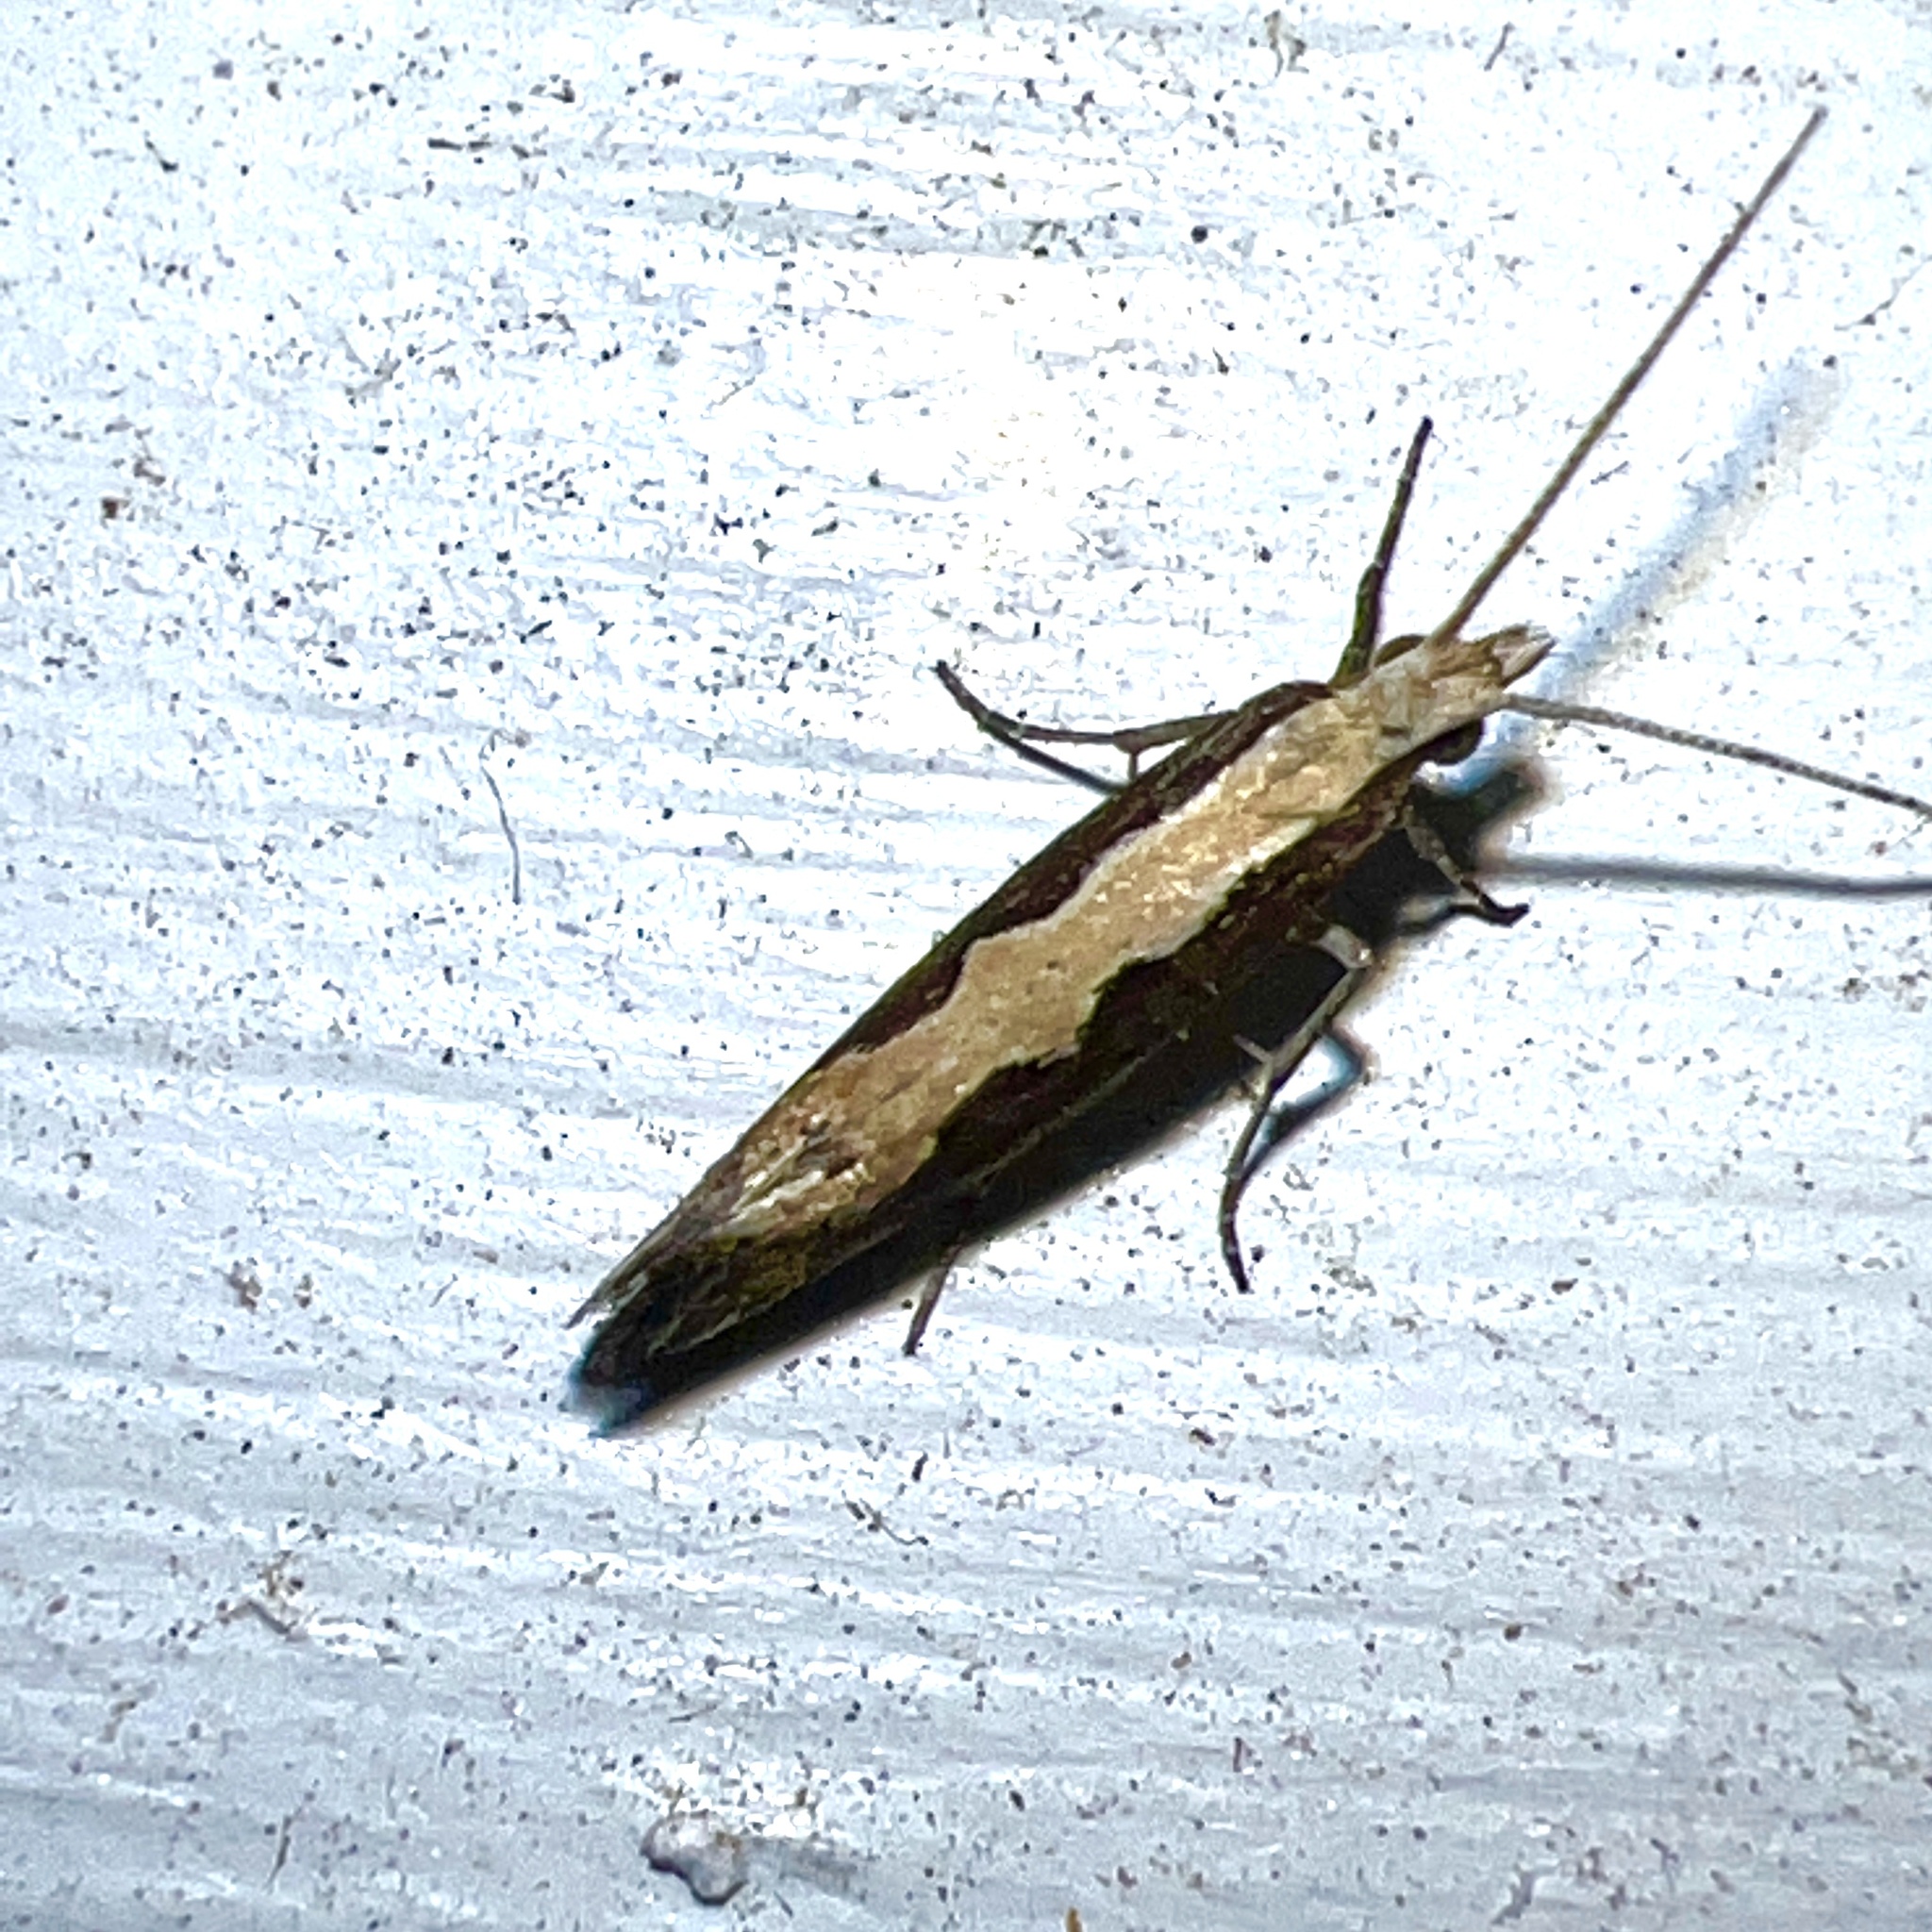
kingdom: Animalia
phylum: Arthropoda
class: Insecta
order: Lepidoptera
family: Plutellidae
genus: Plutella
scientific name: Plutella xylostella
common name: Diamond-back moth
